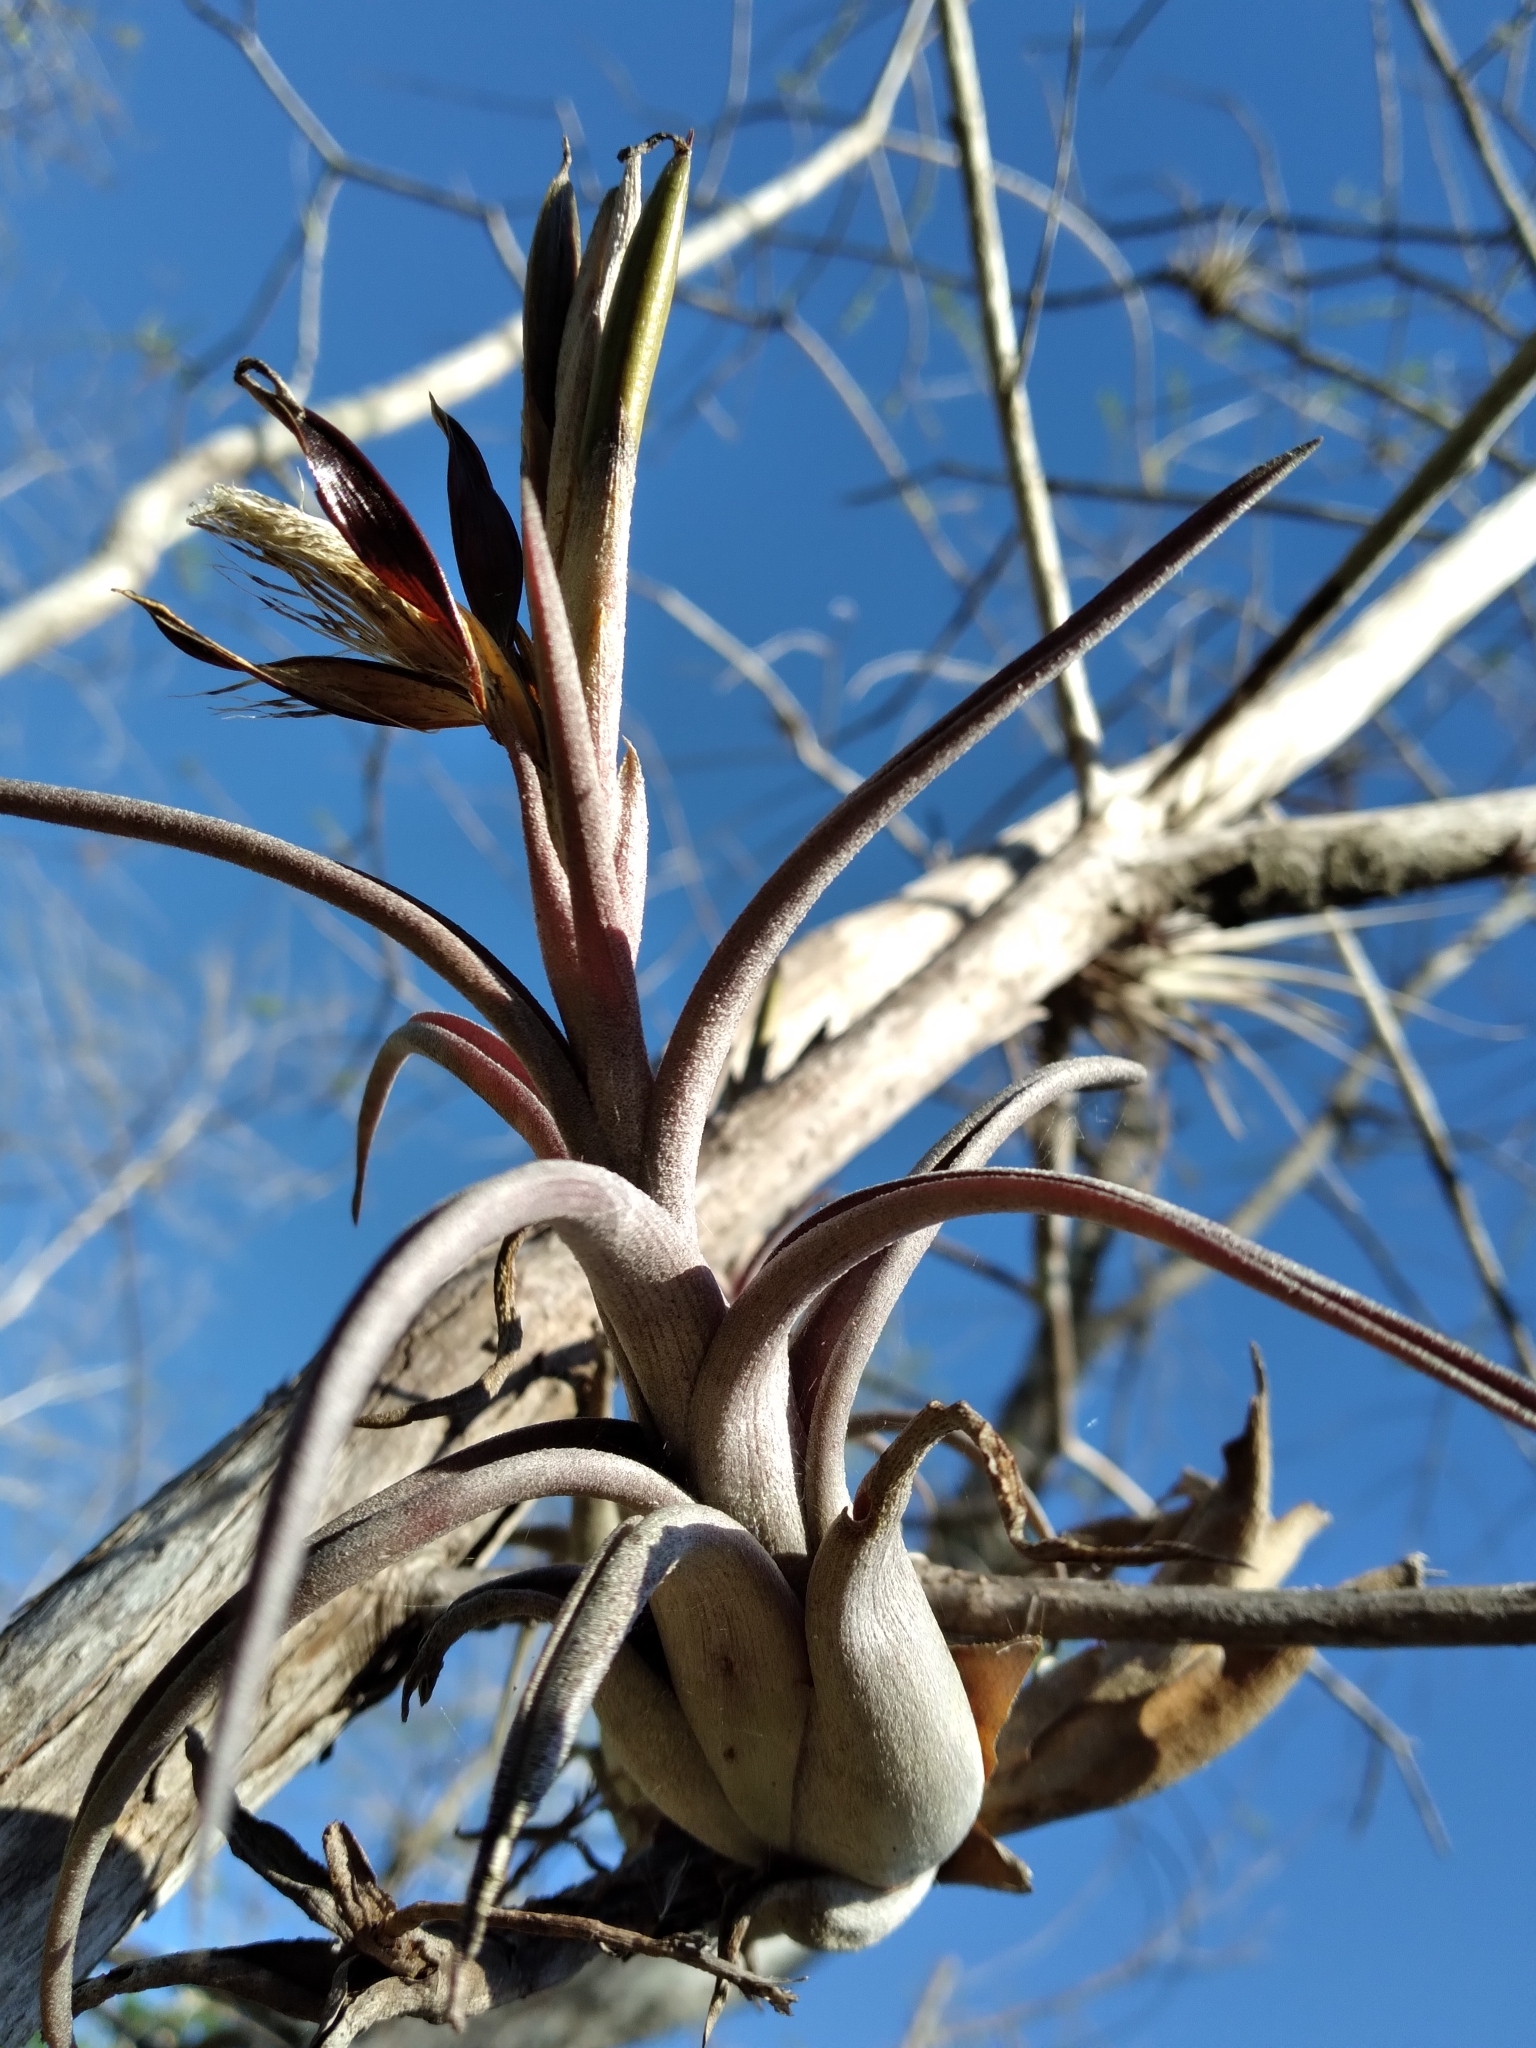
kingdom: Plantae
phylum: Tracheophyta
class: Liliopsida
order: Poales
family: Bromeliaceae
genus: Tillandsia
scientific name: Tillandsia paucifolia
